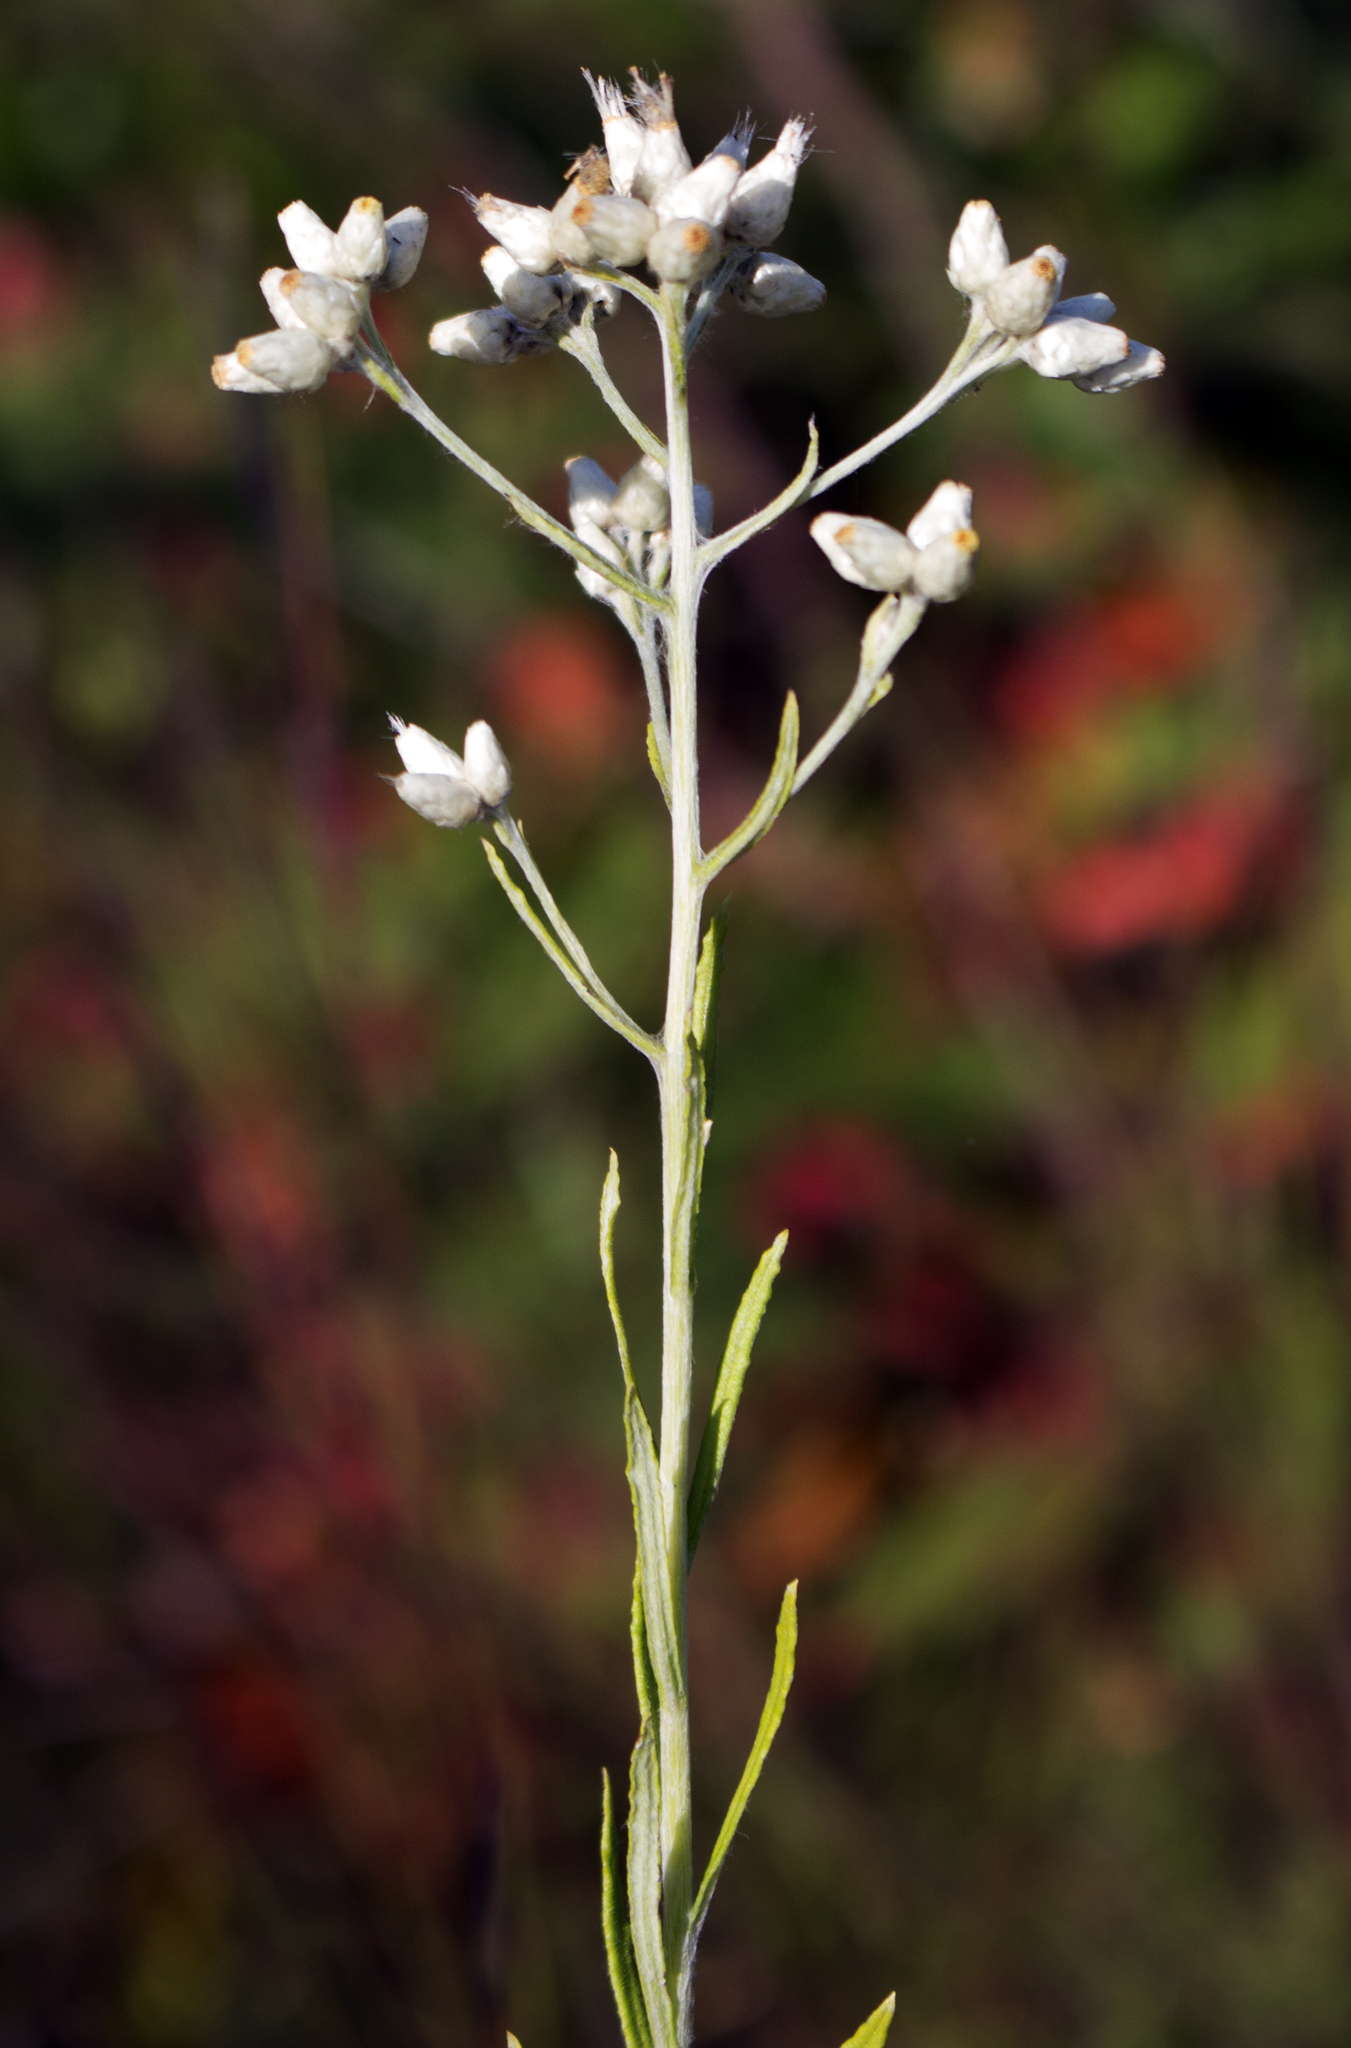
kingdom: Plantae
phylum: Tracheophyta
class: Magnoliopsida
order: Asterales
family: Asteraceae
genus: Pseudognaphalium
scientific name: Pseudognaphalium obtusifolium
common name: Eastern rabbit-tobacco
